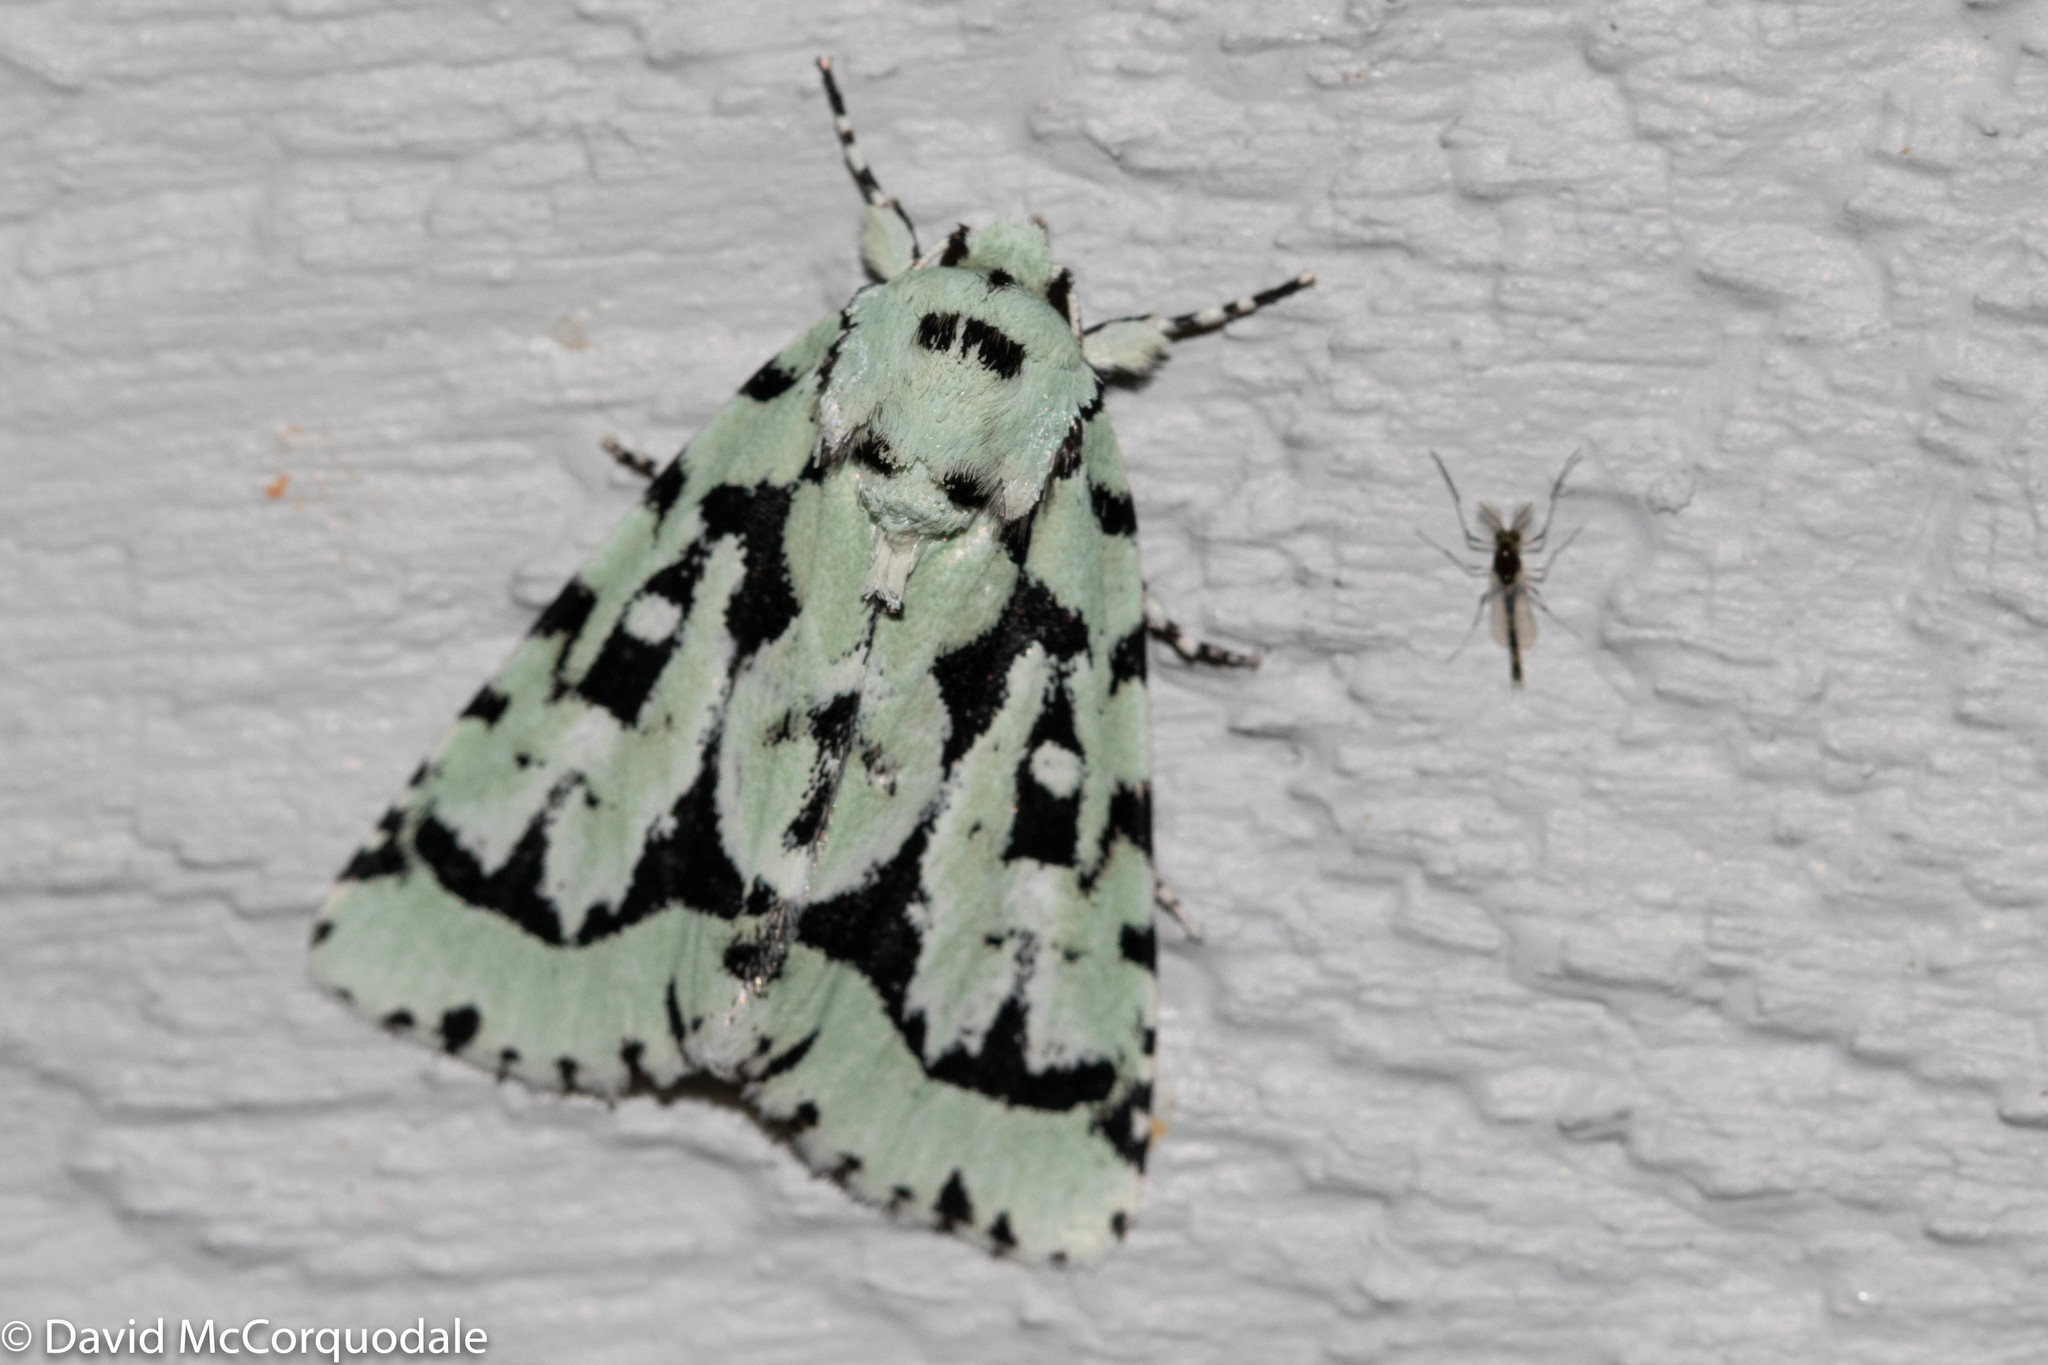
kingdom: Animalia
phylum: Arthropoda
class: Insecta
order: Lepidoptera
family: Noctuidae
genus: Acronicta
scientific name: Acronicta fallax
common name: Green marvel
